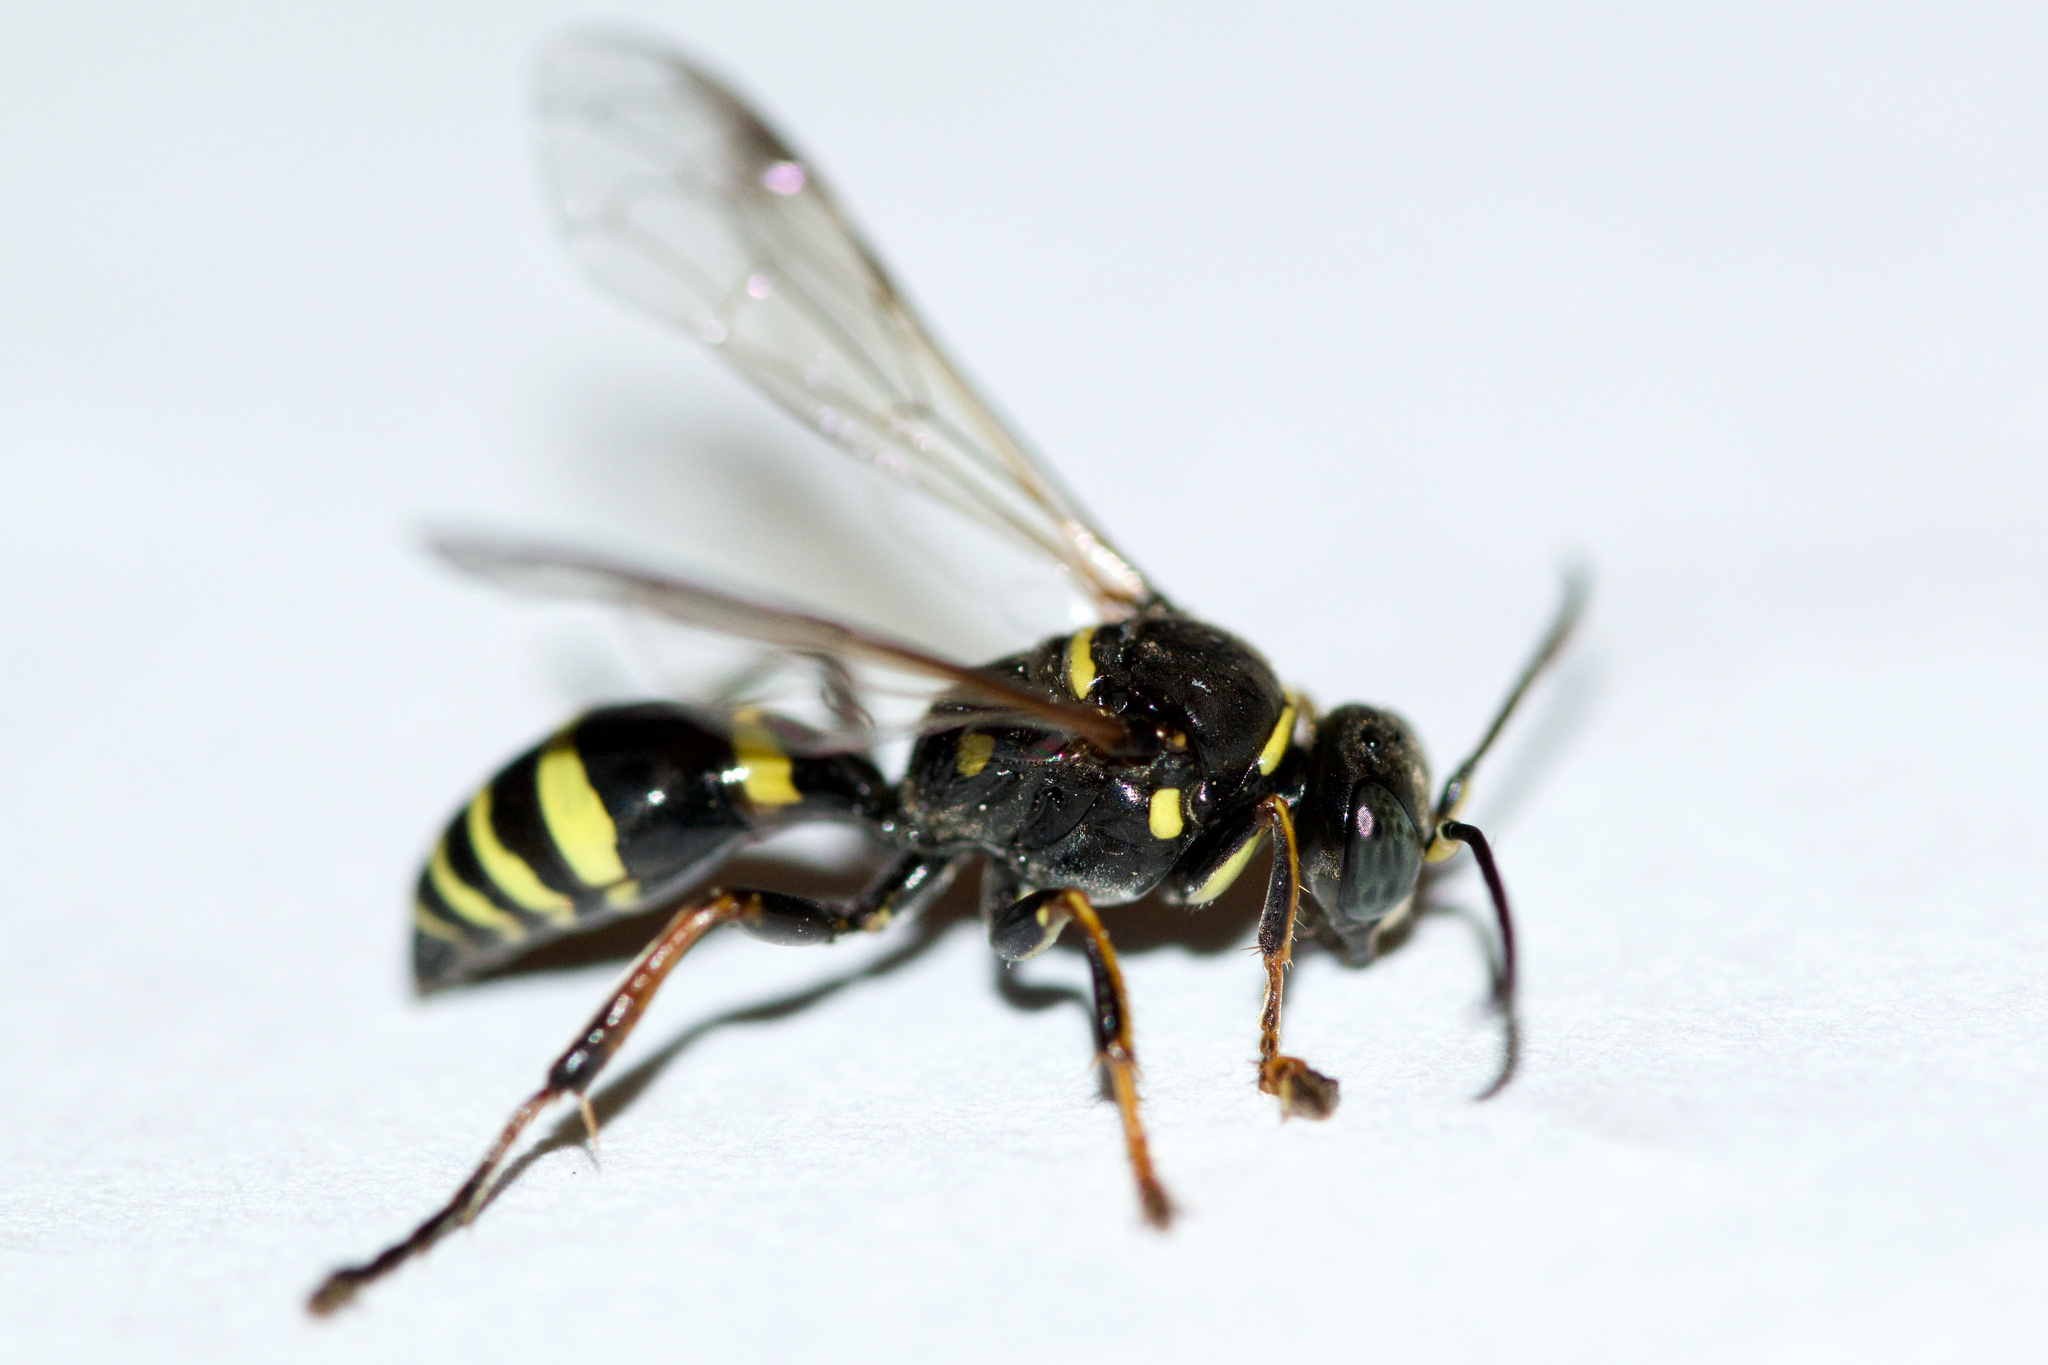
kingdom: Animalia
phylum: Arthropoda
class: Insecta
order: Hymenoptera
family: Crabronidae
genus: Gorytes
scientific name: Gorytes atricornis
